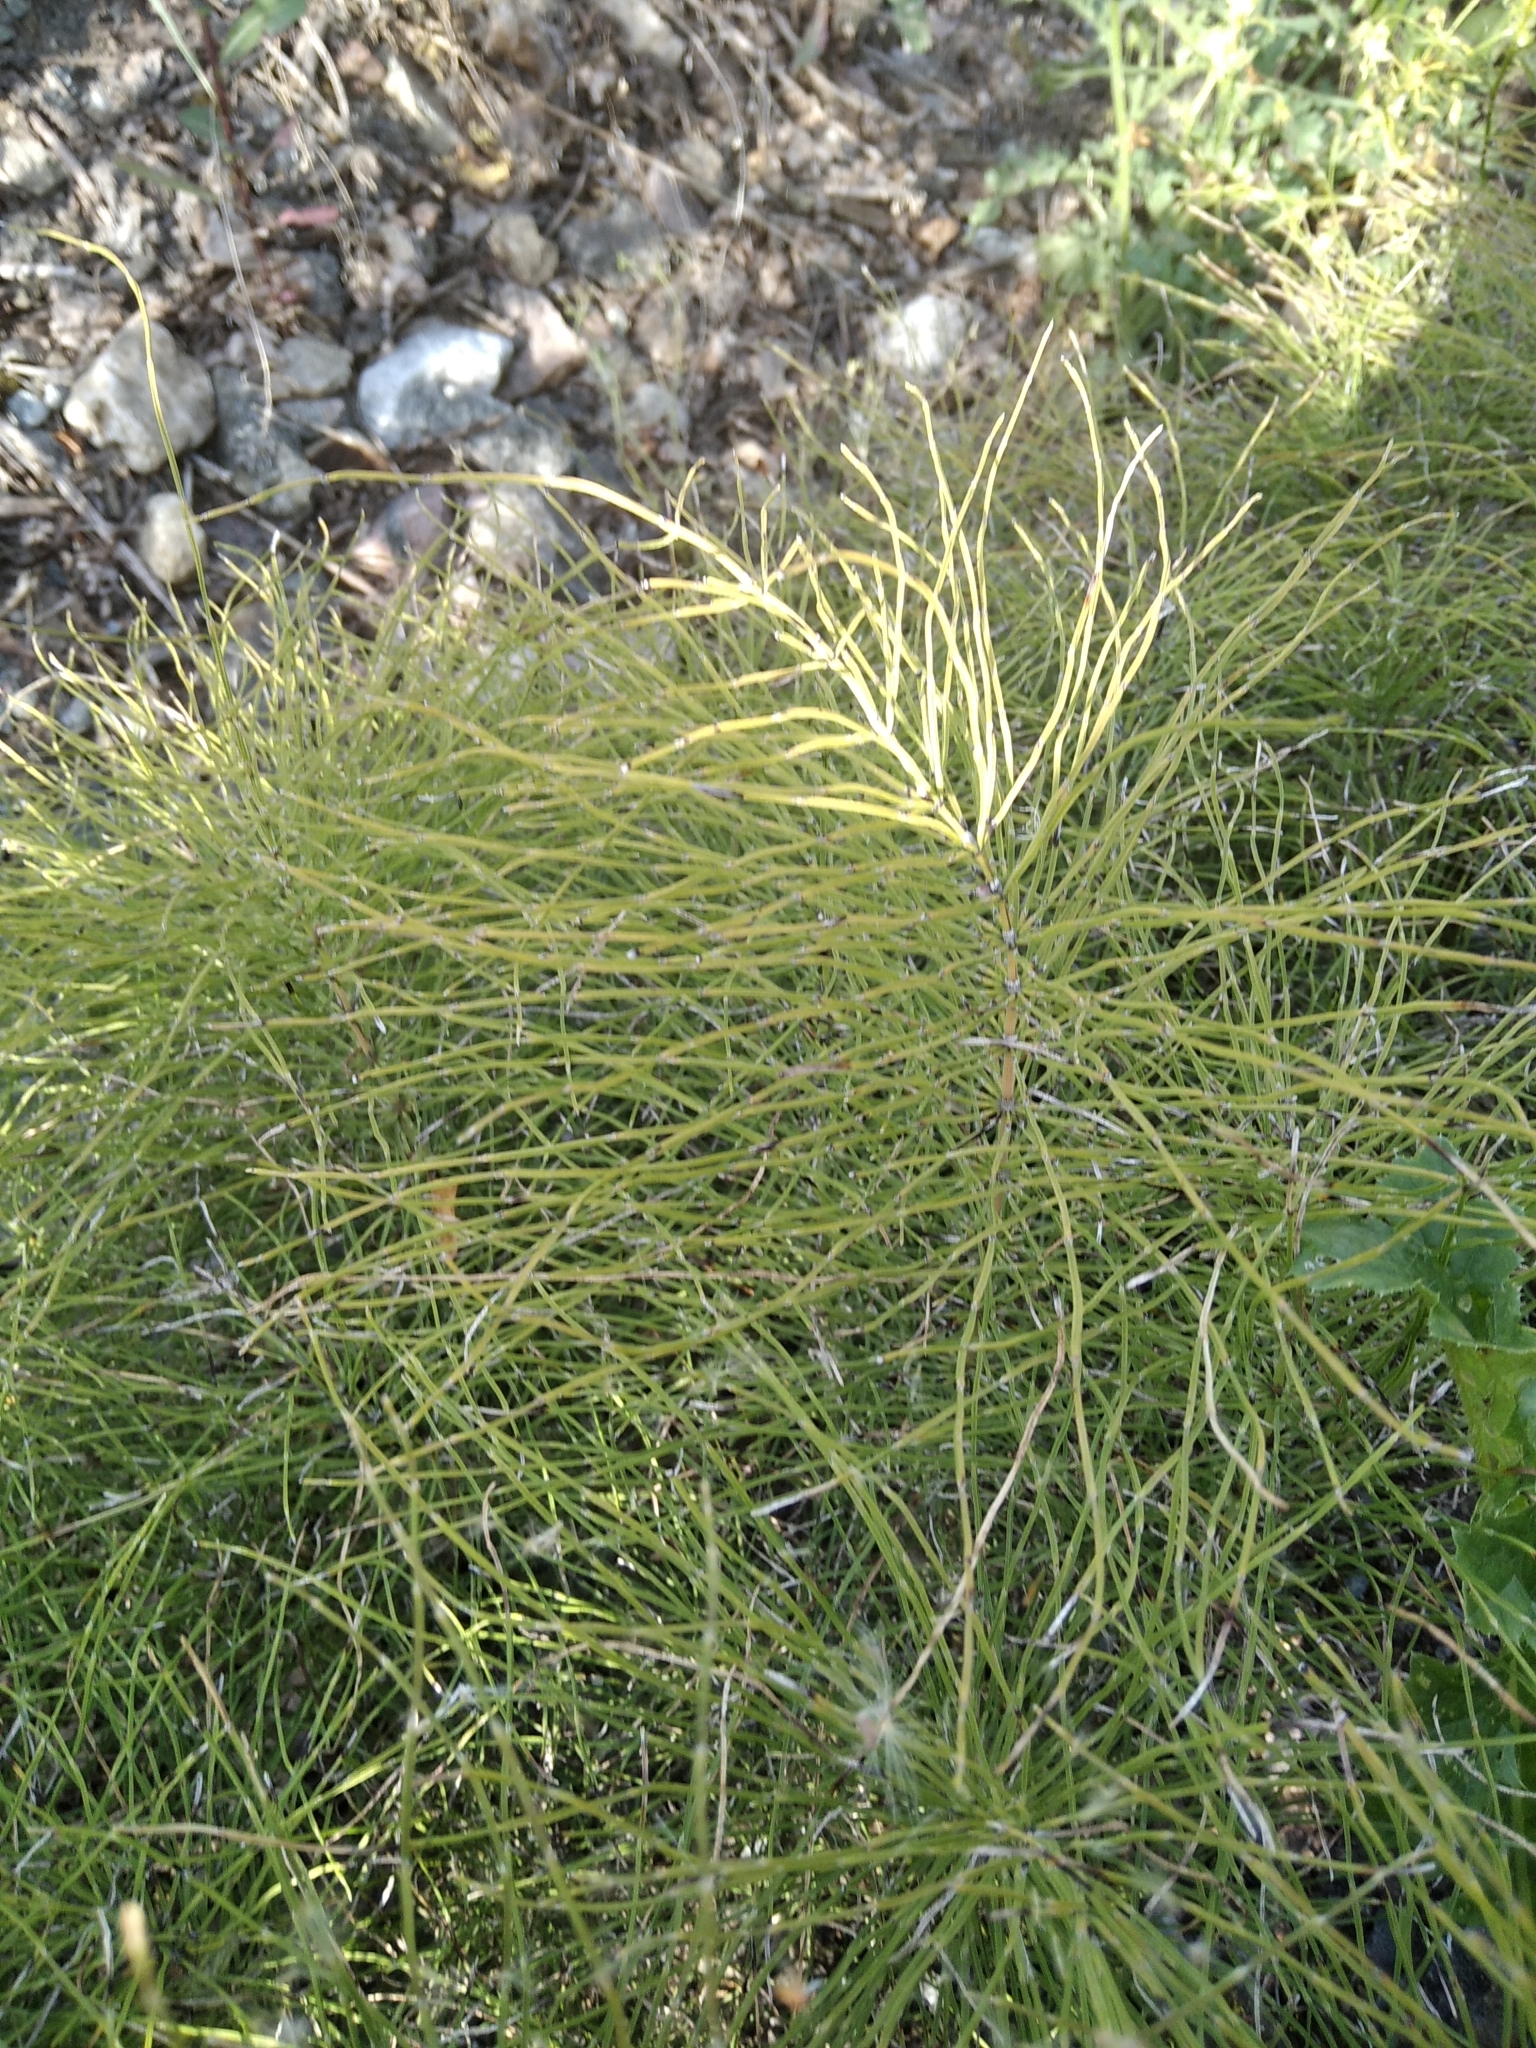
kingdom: Plantae
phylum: Tracheophyta
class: Polypodiopsida
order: Equisetales
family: Equisetaceae
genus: Equisetum
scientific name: Equisetum arvense
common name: Field horsetail
